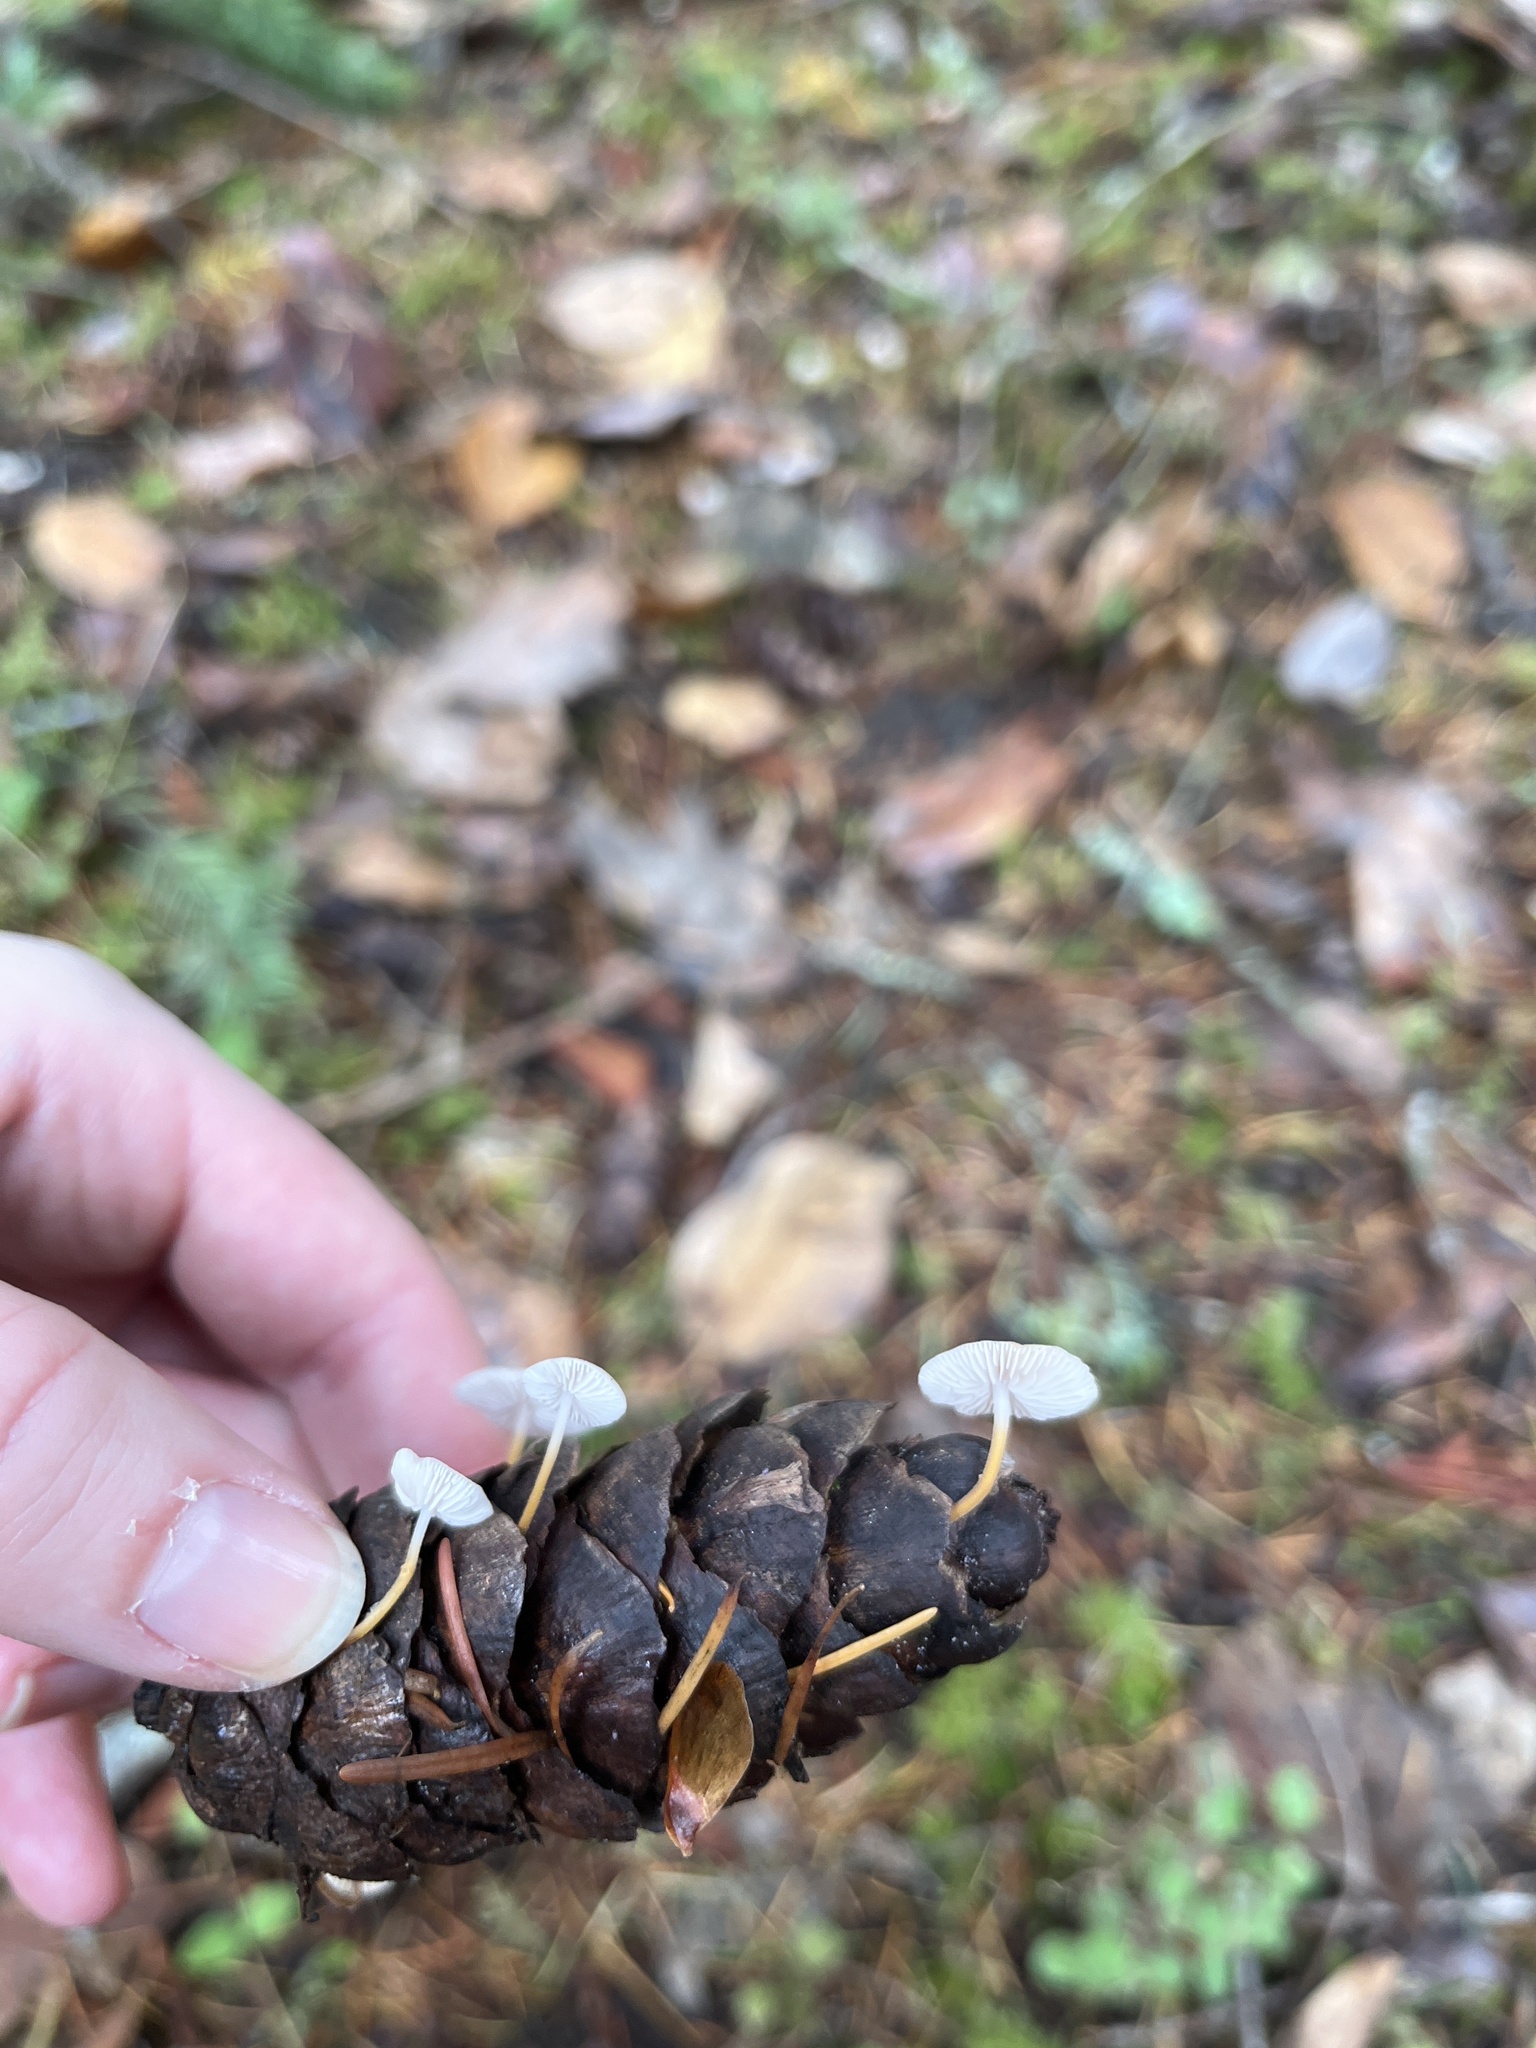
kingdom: Fungi
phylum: Basidiomycota
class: Agaricomycetes
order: Agaricales
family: Physalacriaceae
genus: Strobilurus
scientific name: Strobilurus trullisatus
